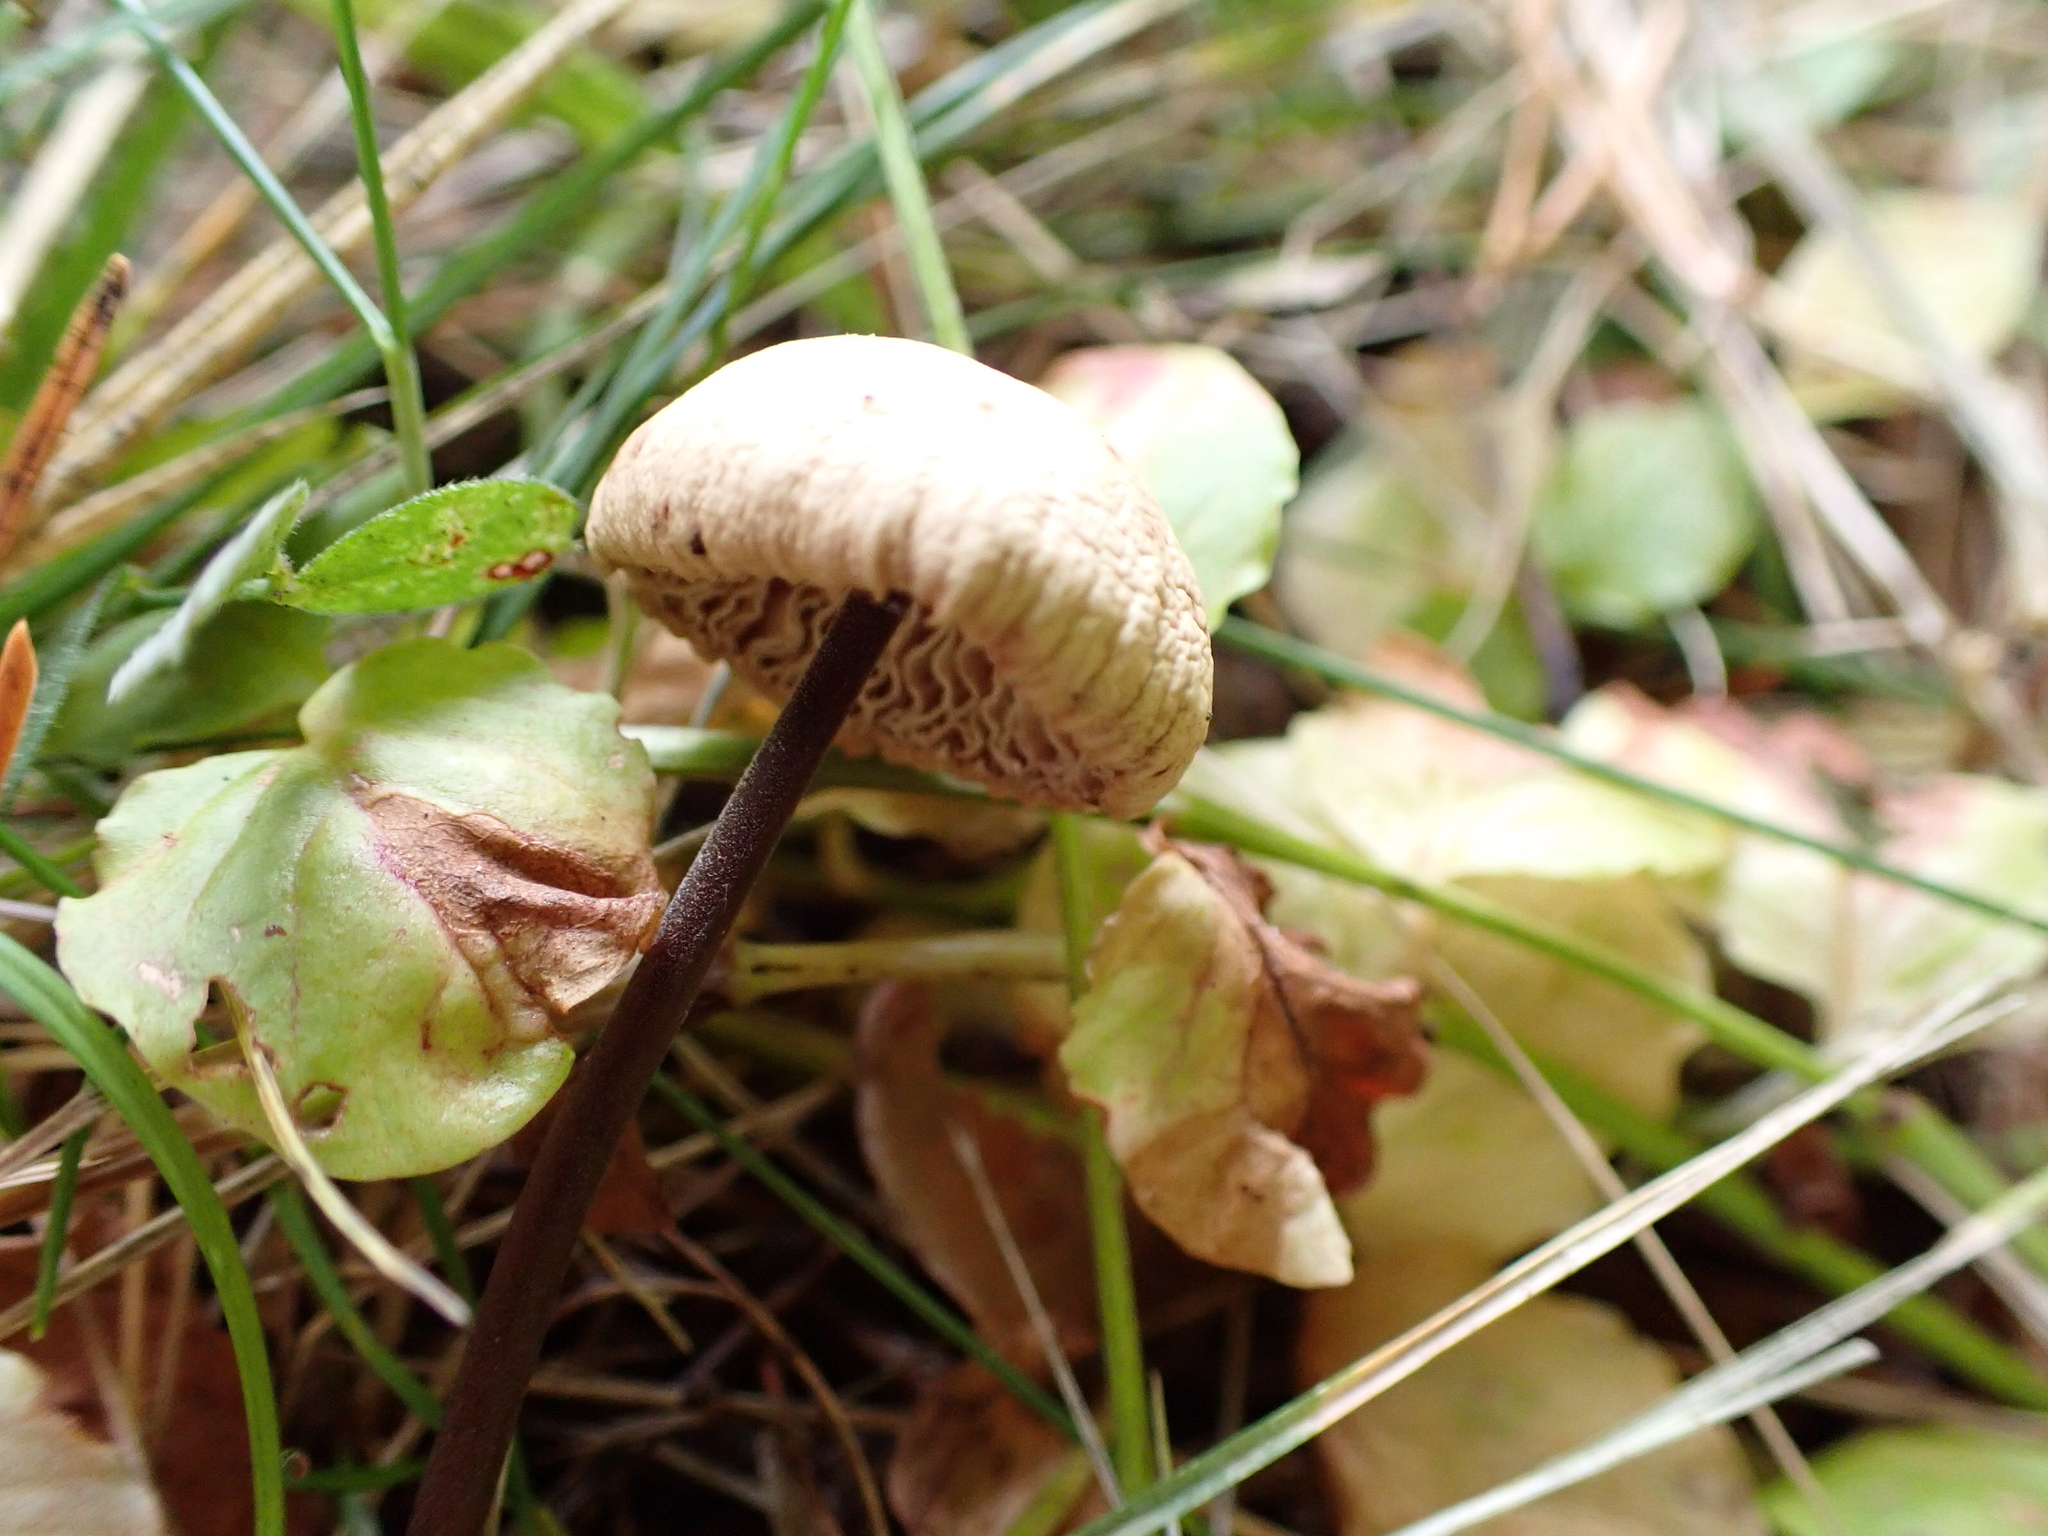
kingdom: Fungi
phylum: Basidiomycota
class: Agaricomycetes
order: Agaricales
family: Omphalotaceae
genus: Mycetinis
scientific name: Mycetinis alliaceus
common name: Garlic parachute
